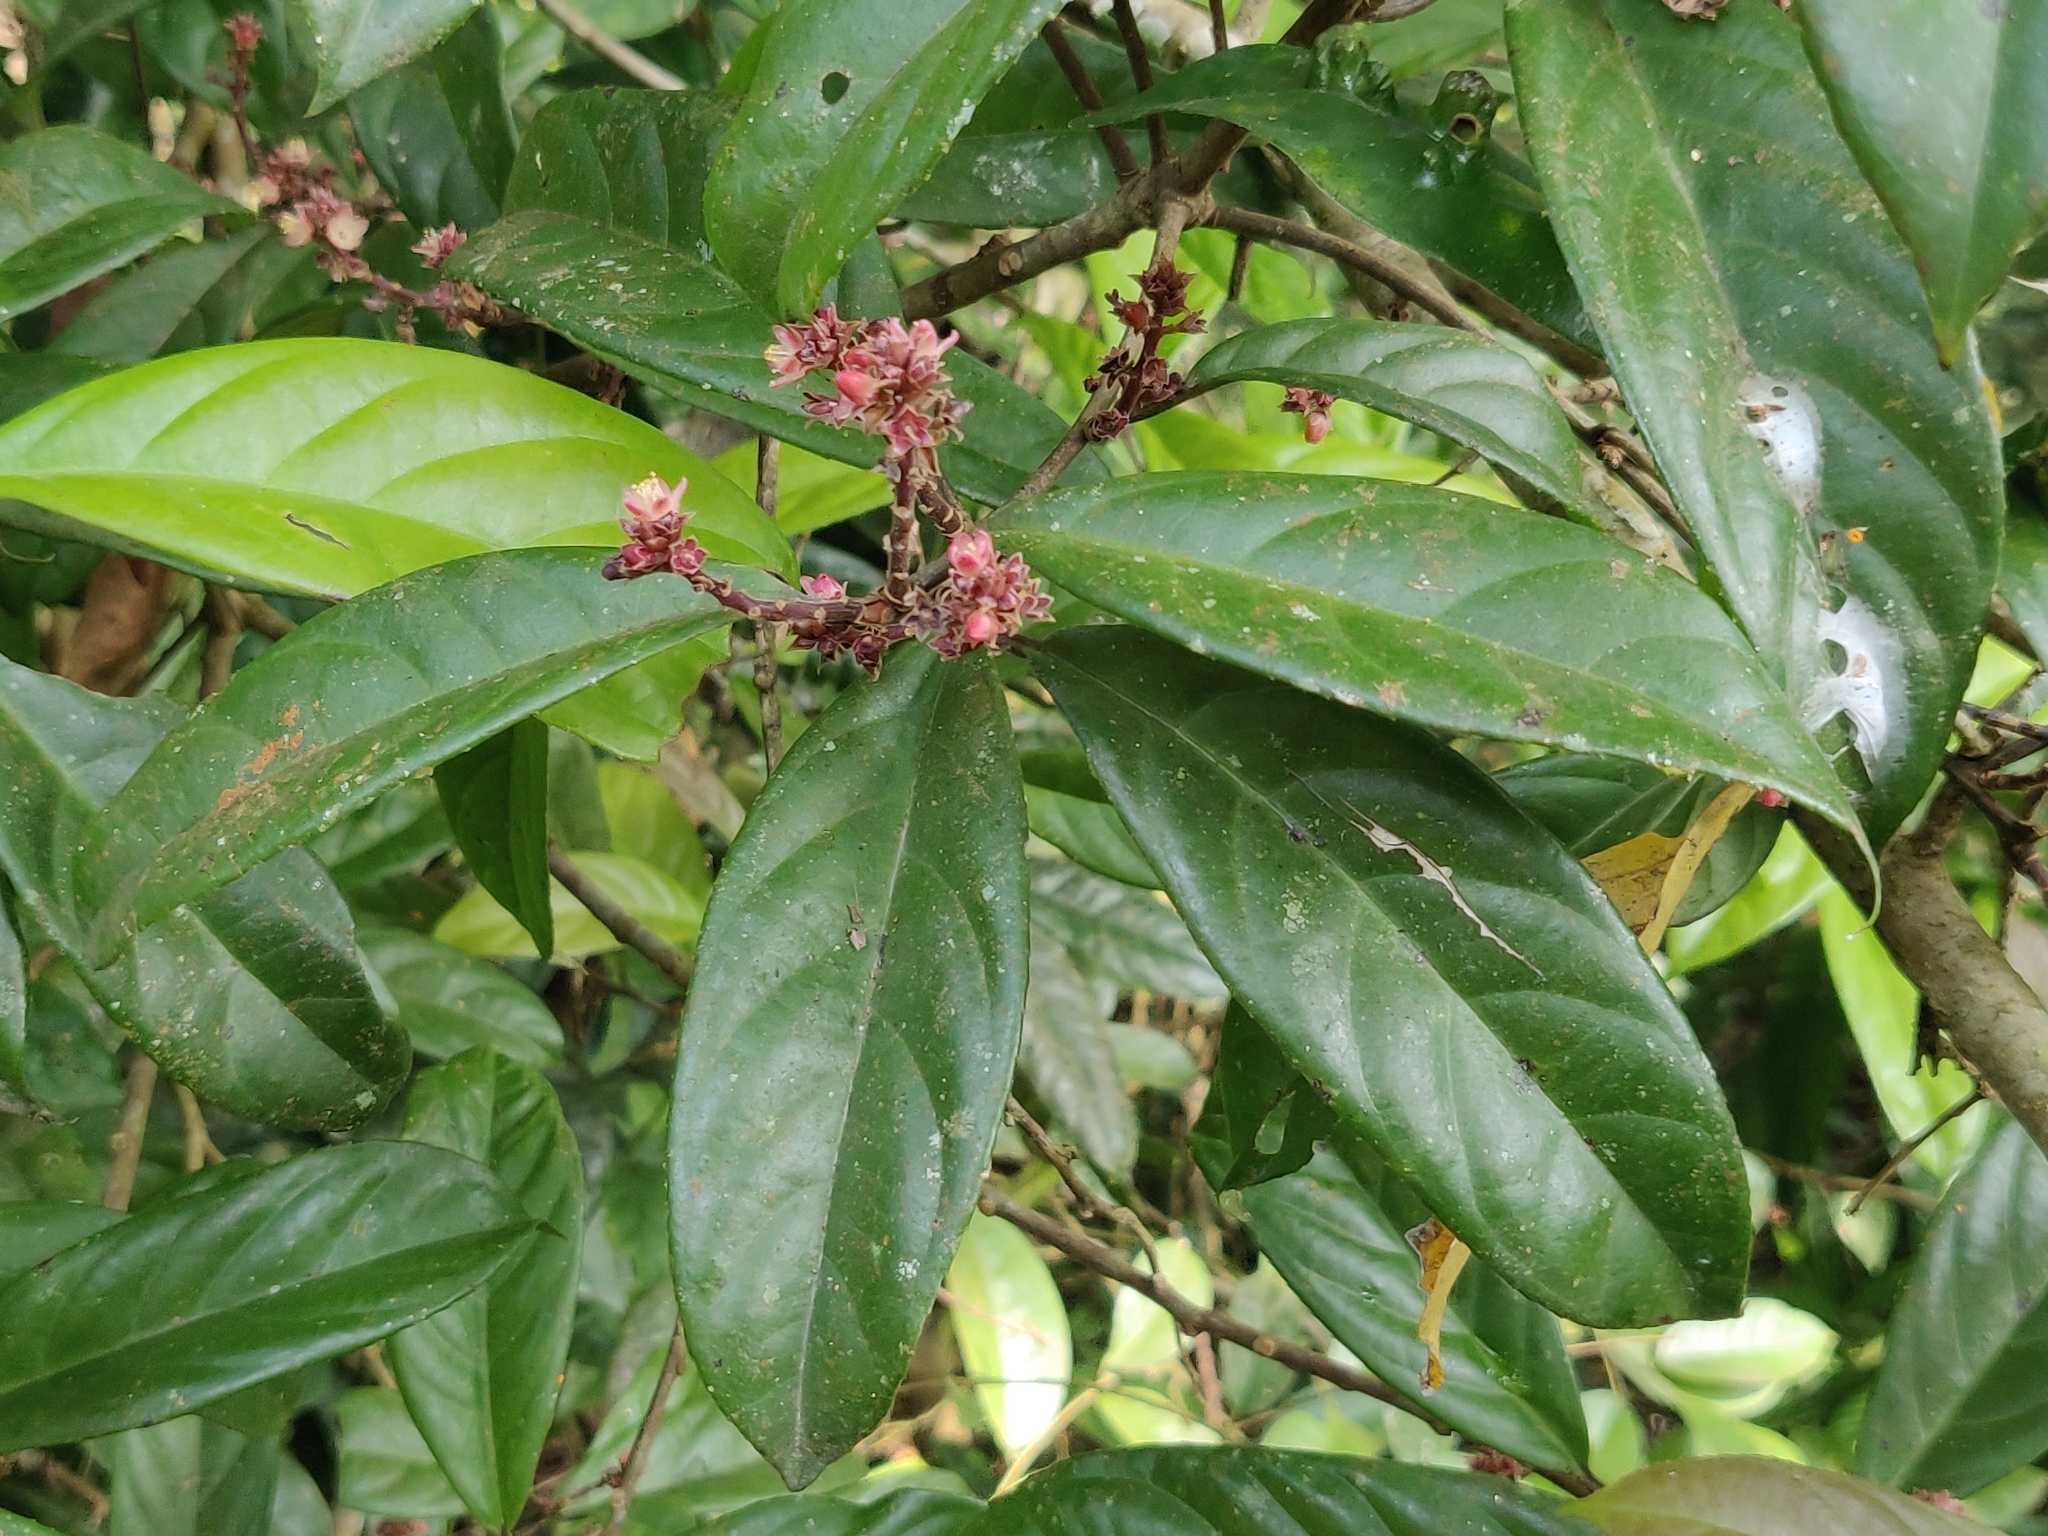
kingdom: Plantae
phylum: Tracheophyta
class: Magnoliopsida
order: Ericales
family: Symplocaceae
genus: Symplocos
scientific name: Symplocos macrophylla
